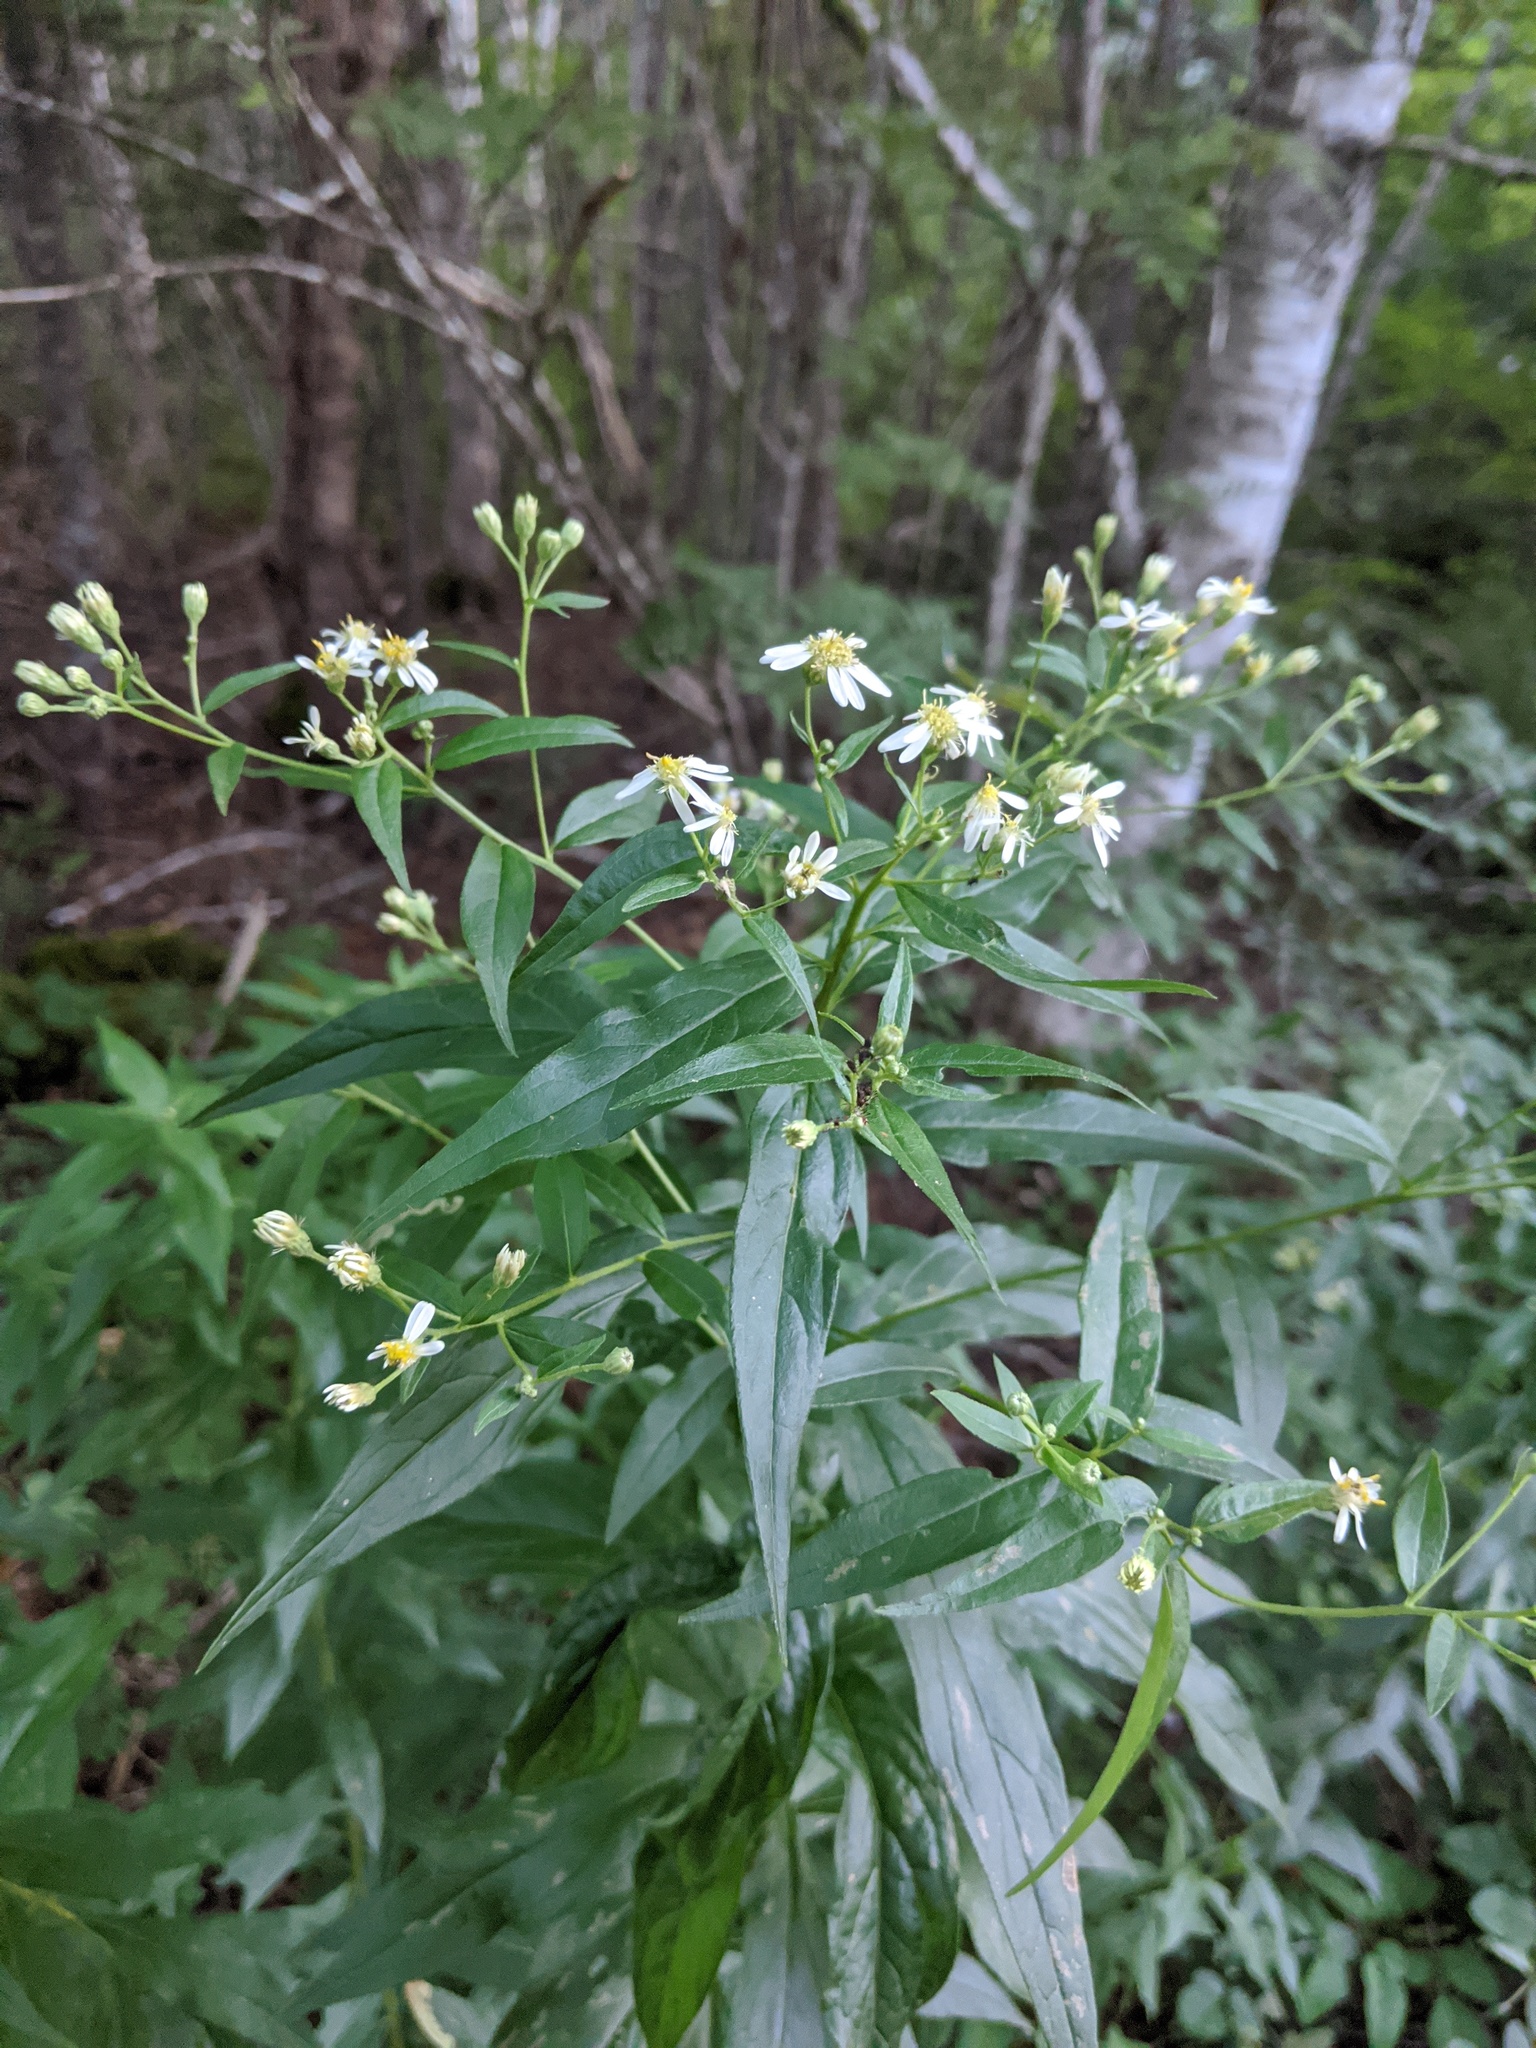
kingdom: Plantae
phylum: Tracheophyta
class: Magnoliopsida
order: Asterales
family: Asteraceae
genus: Doellingeria
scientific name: Doellingeria umbellata
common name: Flat-top white aster
